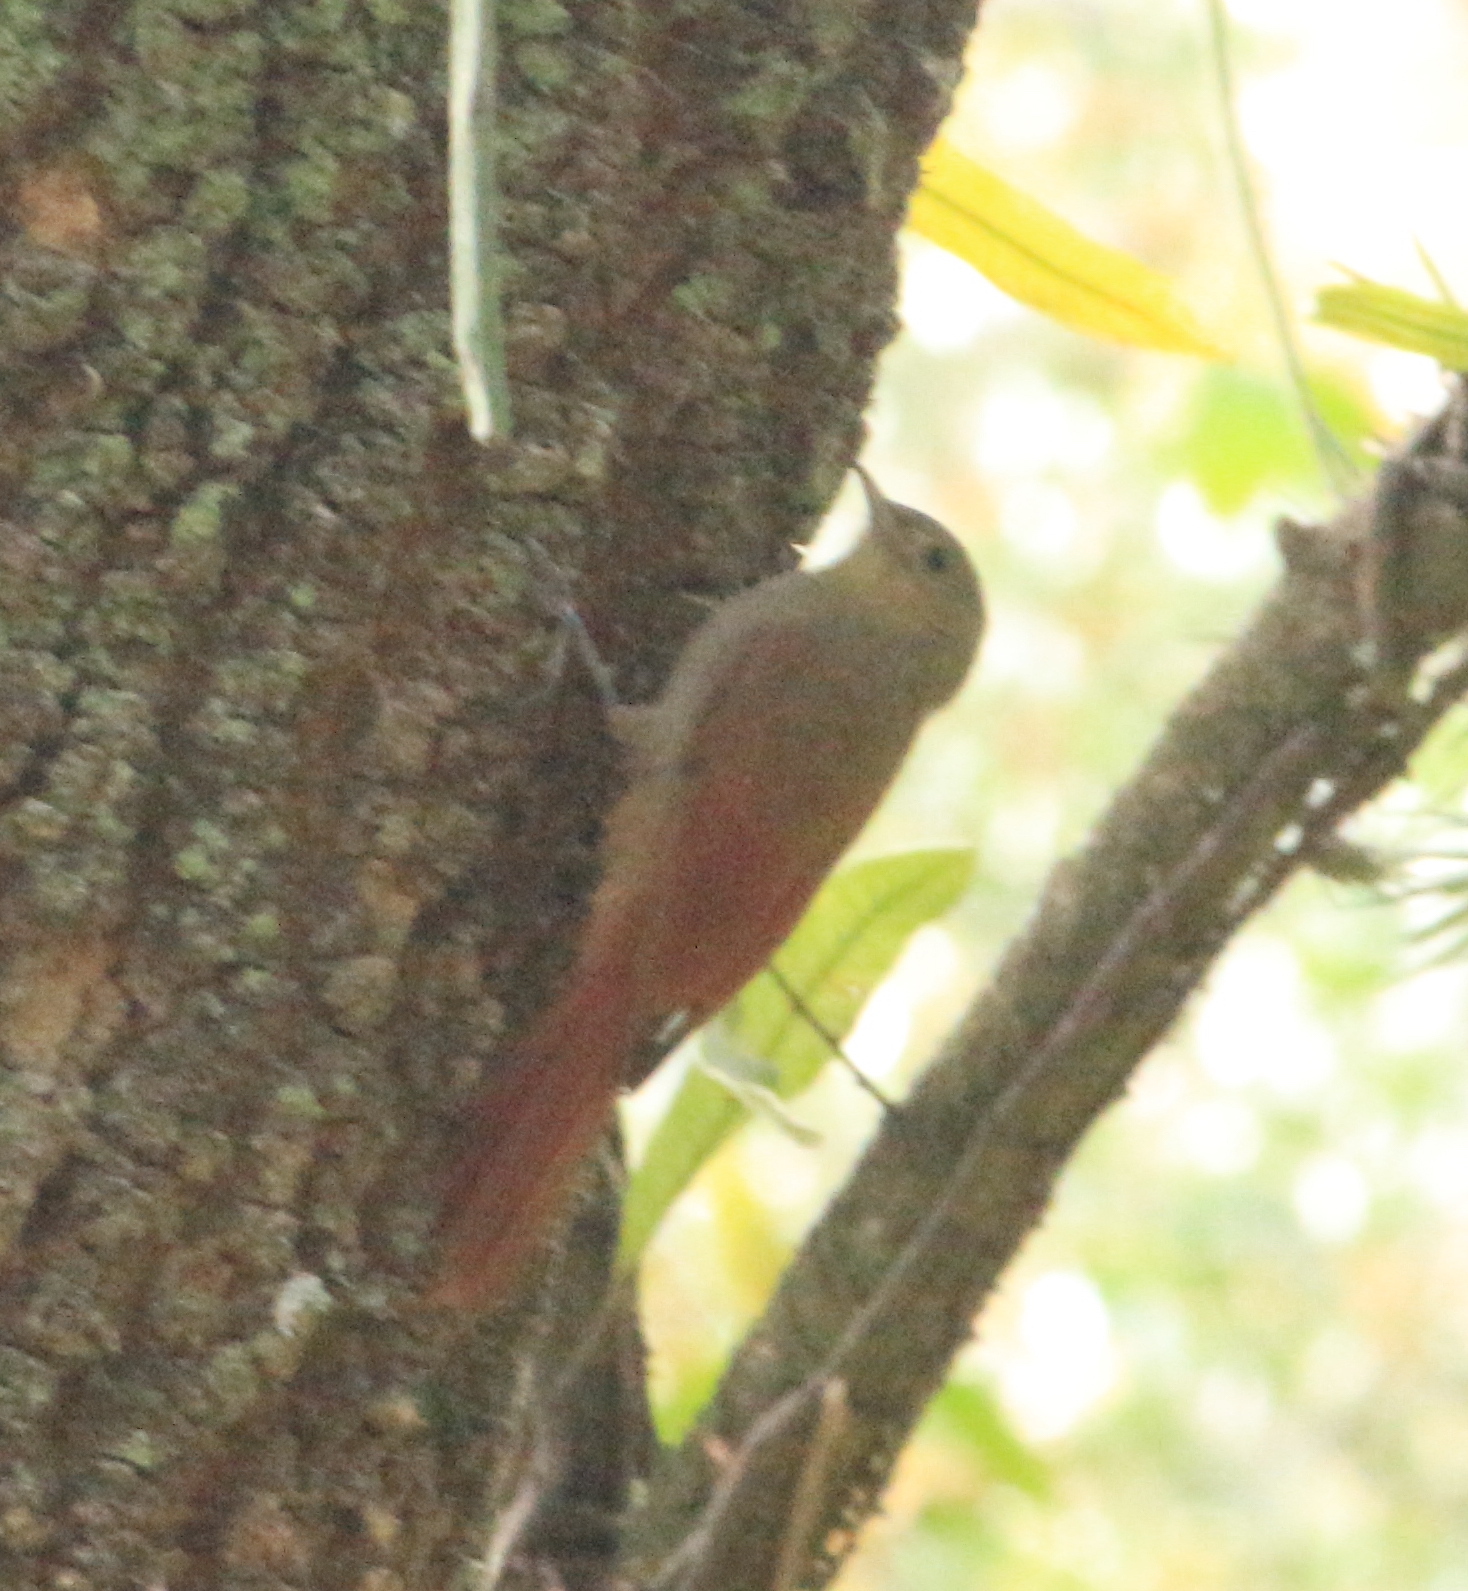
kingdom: Animalia
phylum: Chordata
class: Aves
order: Passeriformes
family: Furnariidae
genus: Sittasomus
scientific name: Sittasomus griseicapillus
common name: Olivaceous woodcreeper
